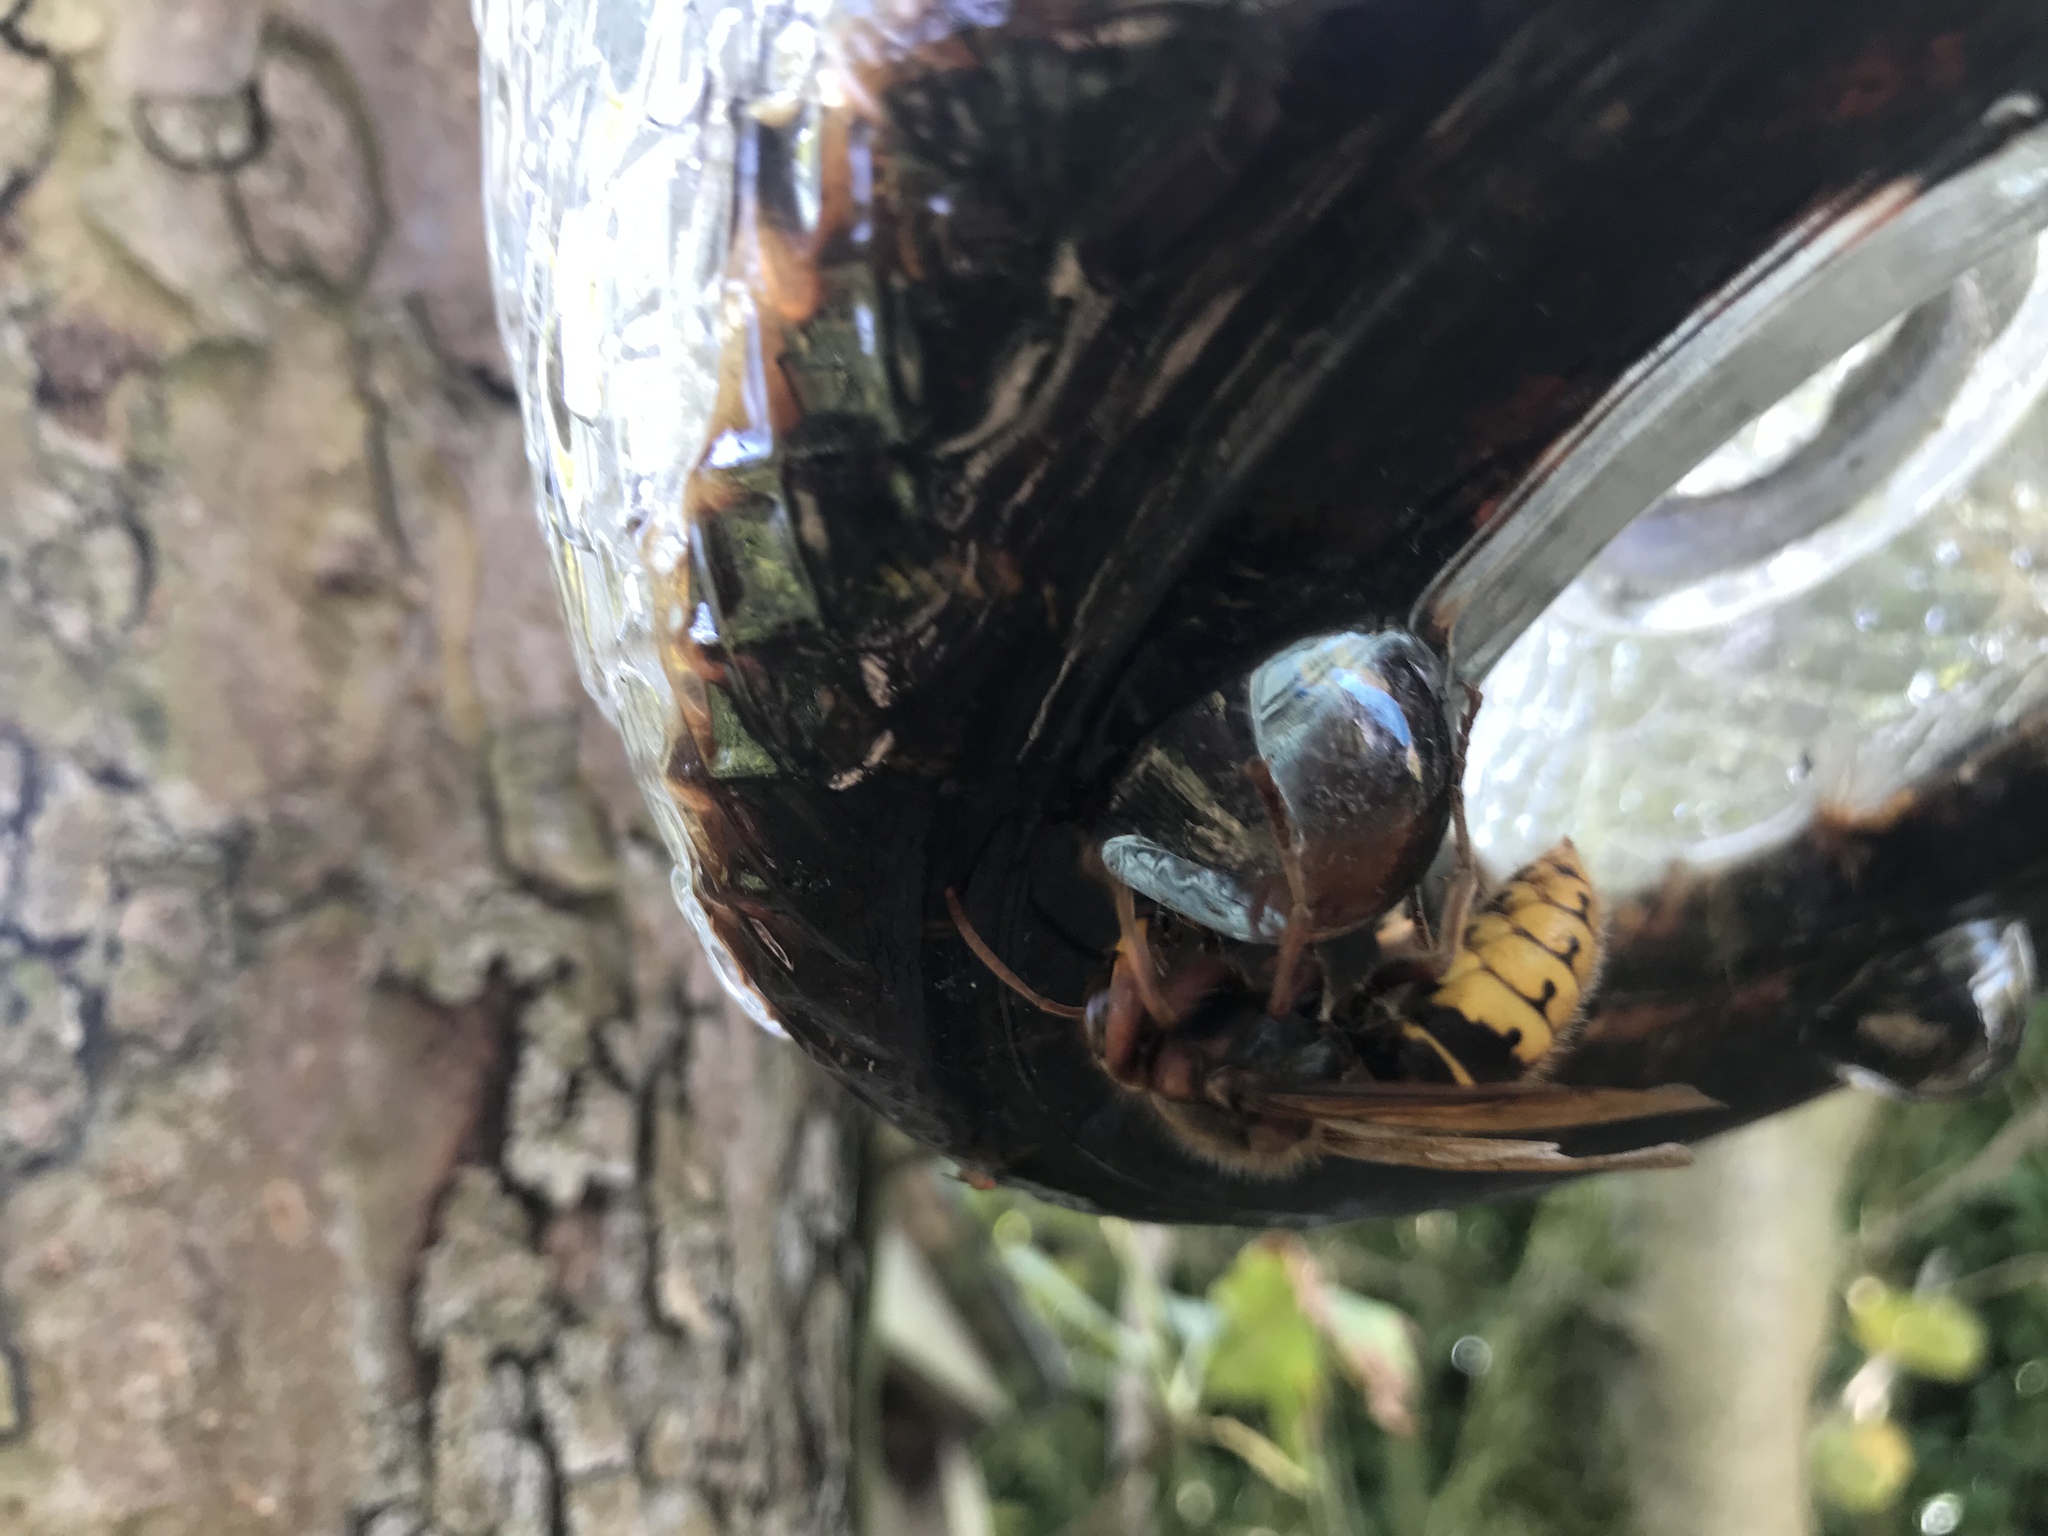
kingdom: Animalia
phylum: Arthropoda
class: Insecta
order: Hymenoptera
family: Vespidae
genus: Vespa
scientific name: Vespa crabro
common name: Hornet
